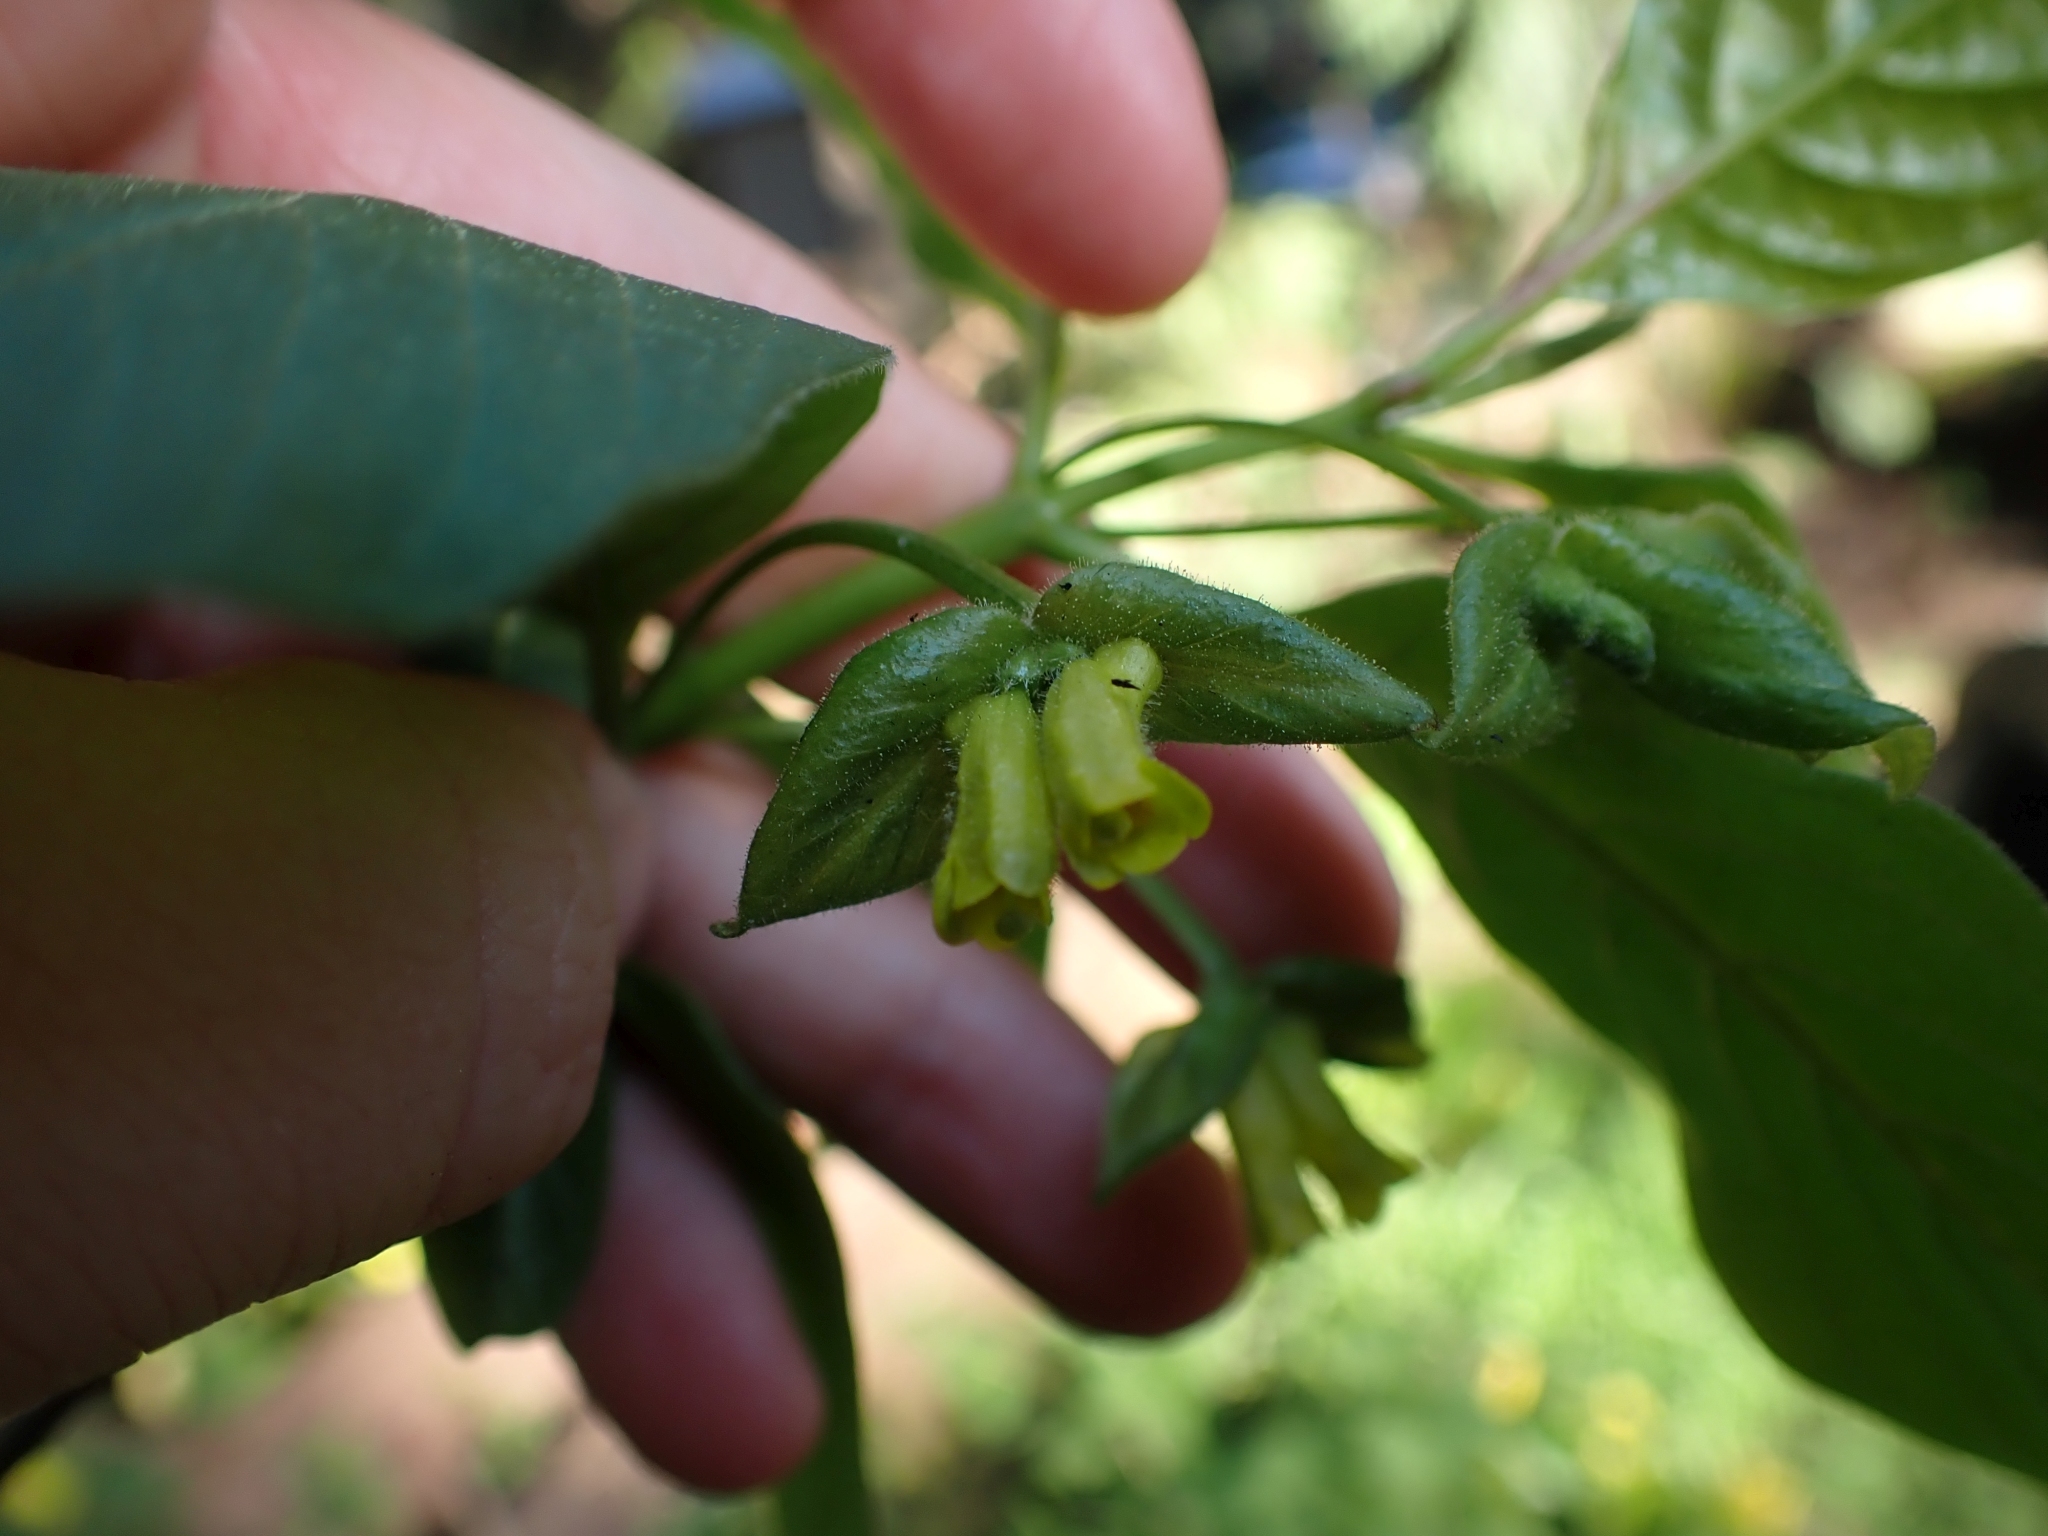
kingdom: Plantae
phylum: Tracheophyta
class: Magnoliopsida
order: Dipsacales
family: Caprifoliaceae
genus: Lonicera
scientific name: Lonicera involucrata
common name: Californian honeysuckle
